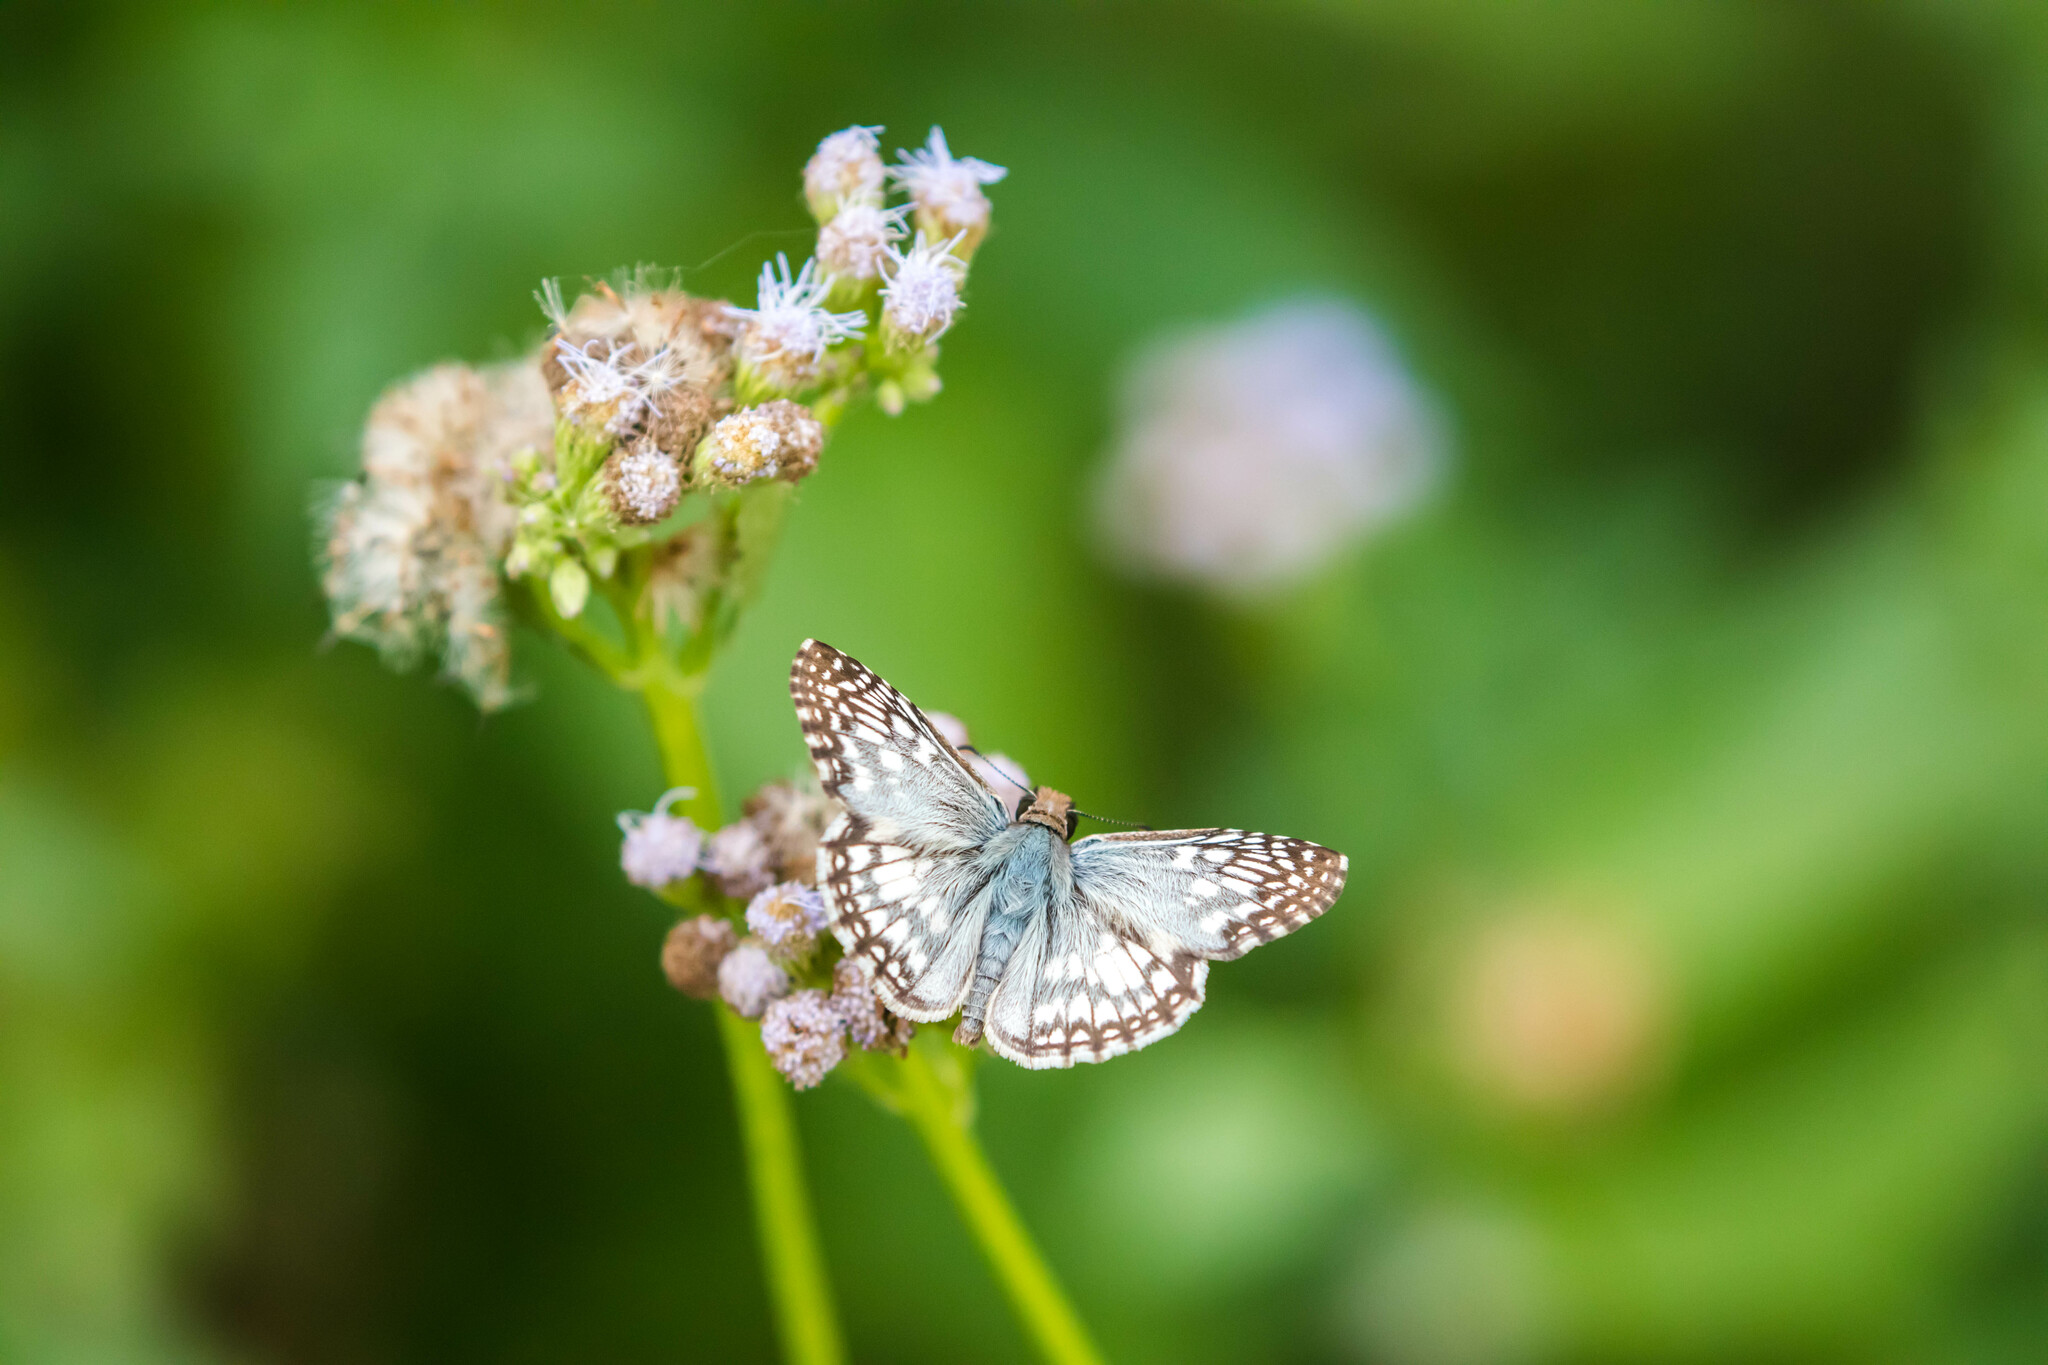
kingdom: Animalia
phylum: Arthropoda
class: Insecta
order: Lepidoptera
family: Hesperiidae
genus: Pyrgus
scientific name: Pyrgus oileus
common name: Tropical checkered-skipper
